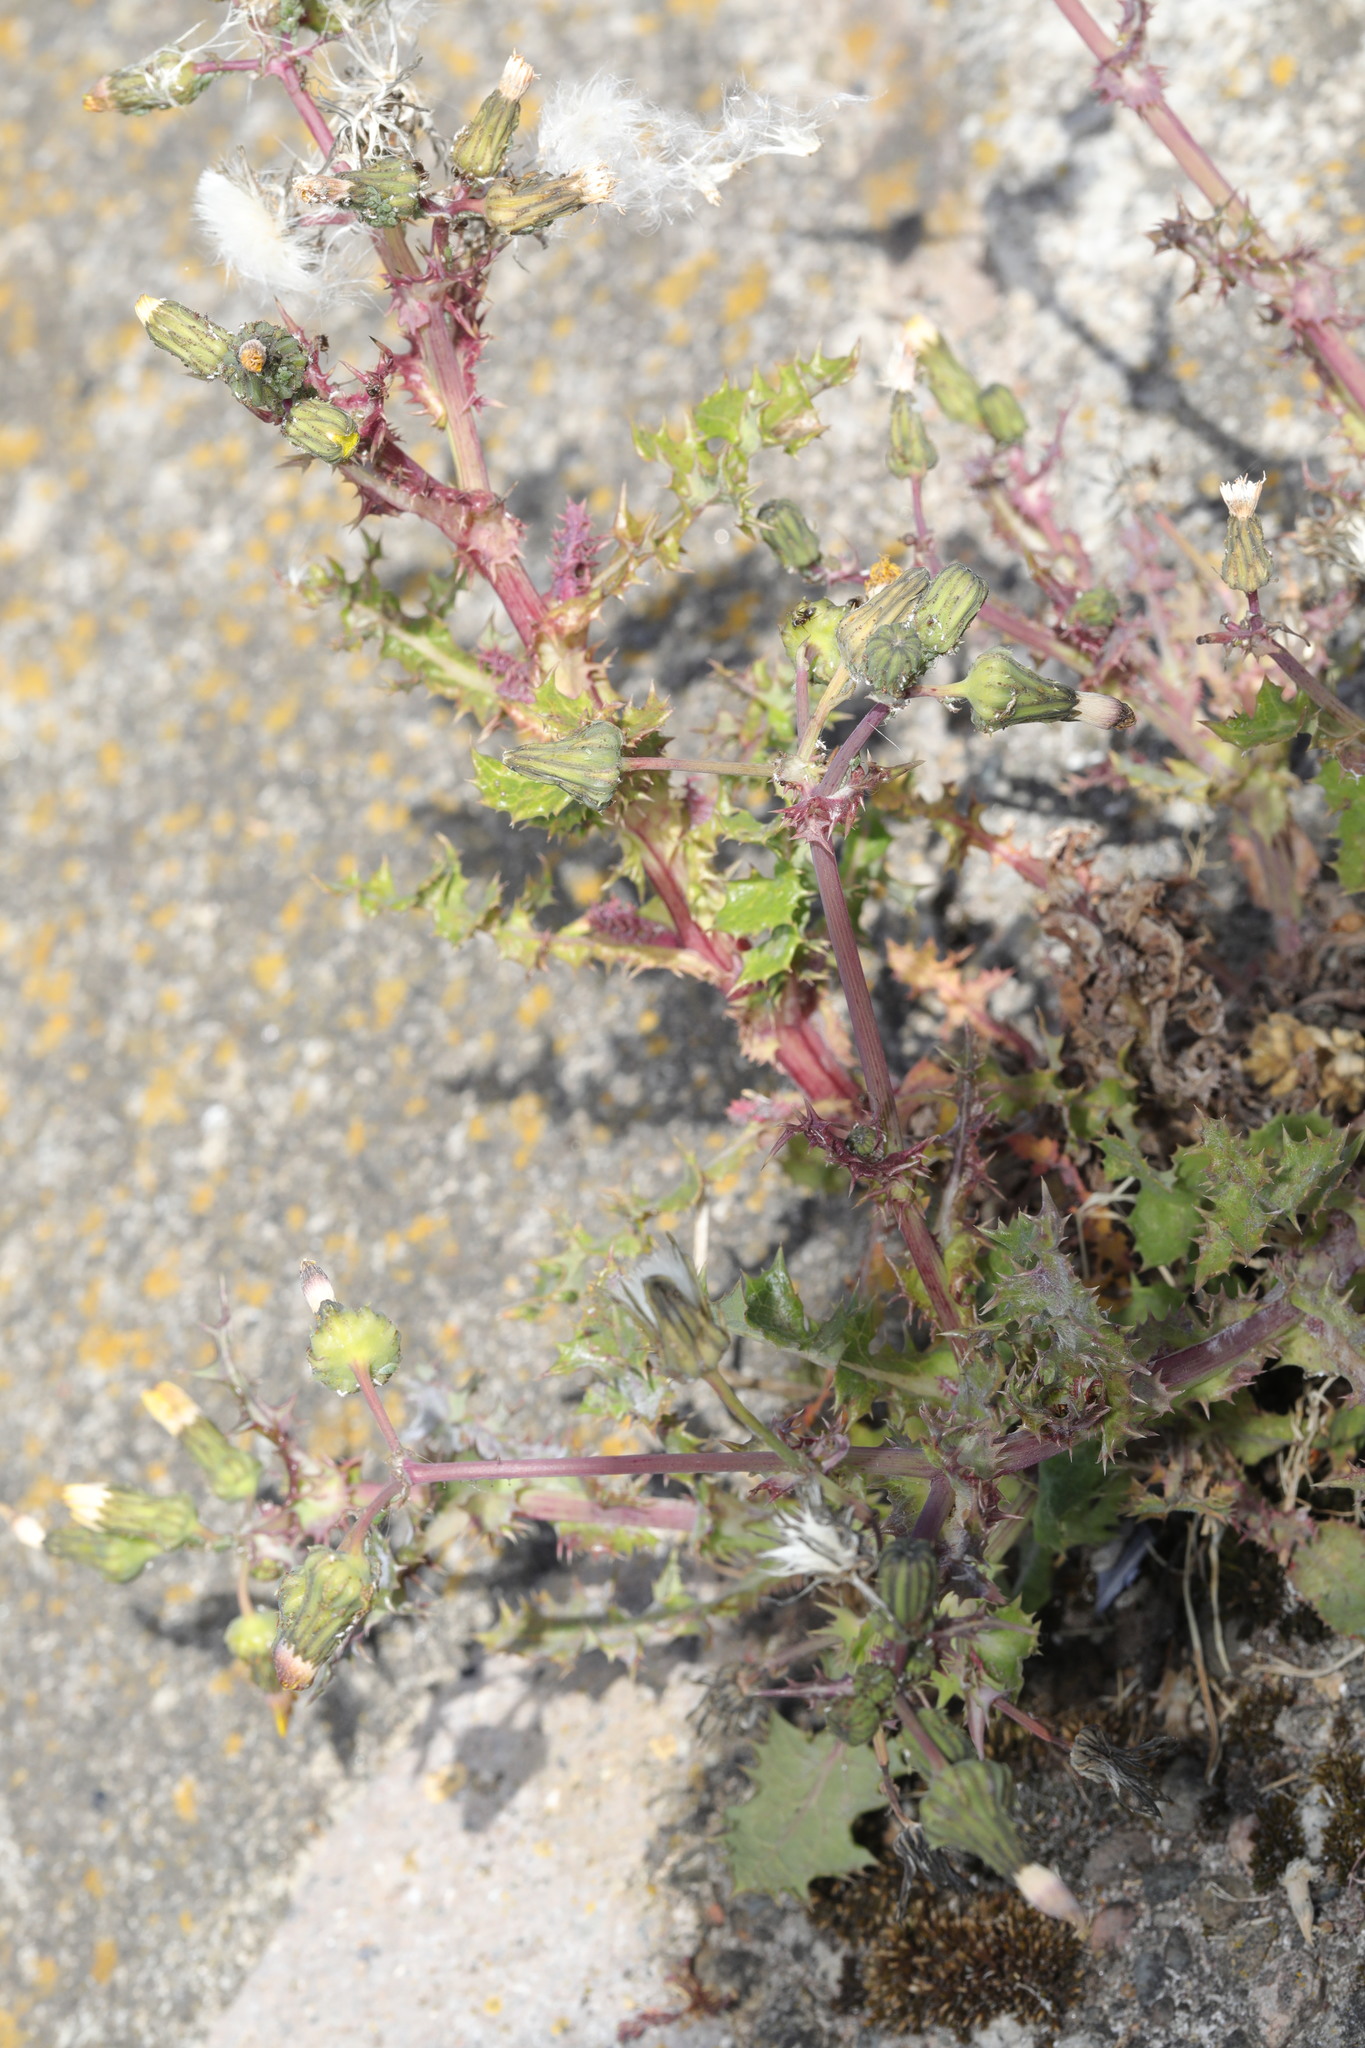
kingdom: Plantae
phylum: Tracheophyta
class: Magnoliopsida
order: Asterales
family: Asteraceae
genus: Sonchus
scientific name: Sonchus asper
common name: Prickly sow-thistle
